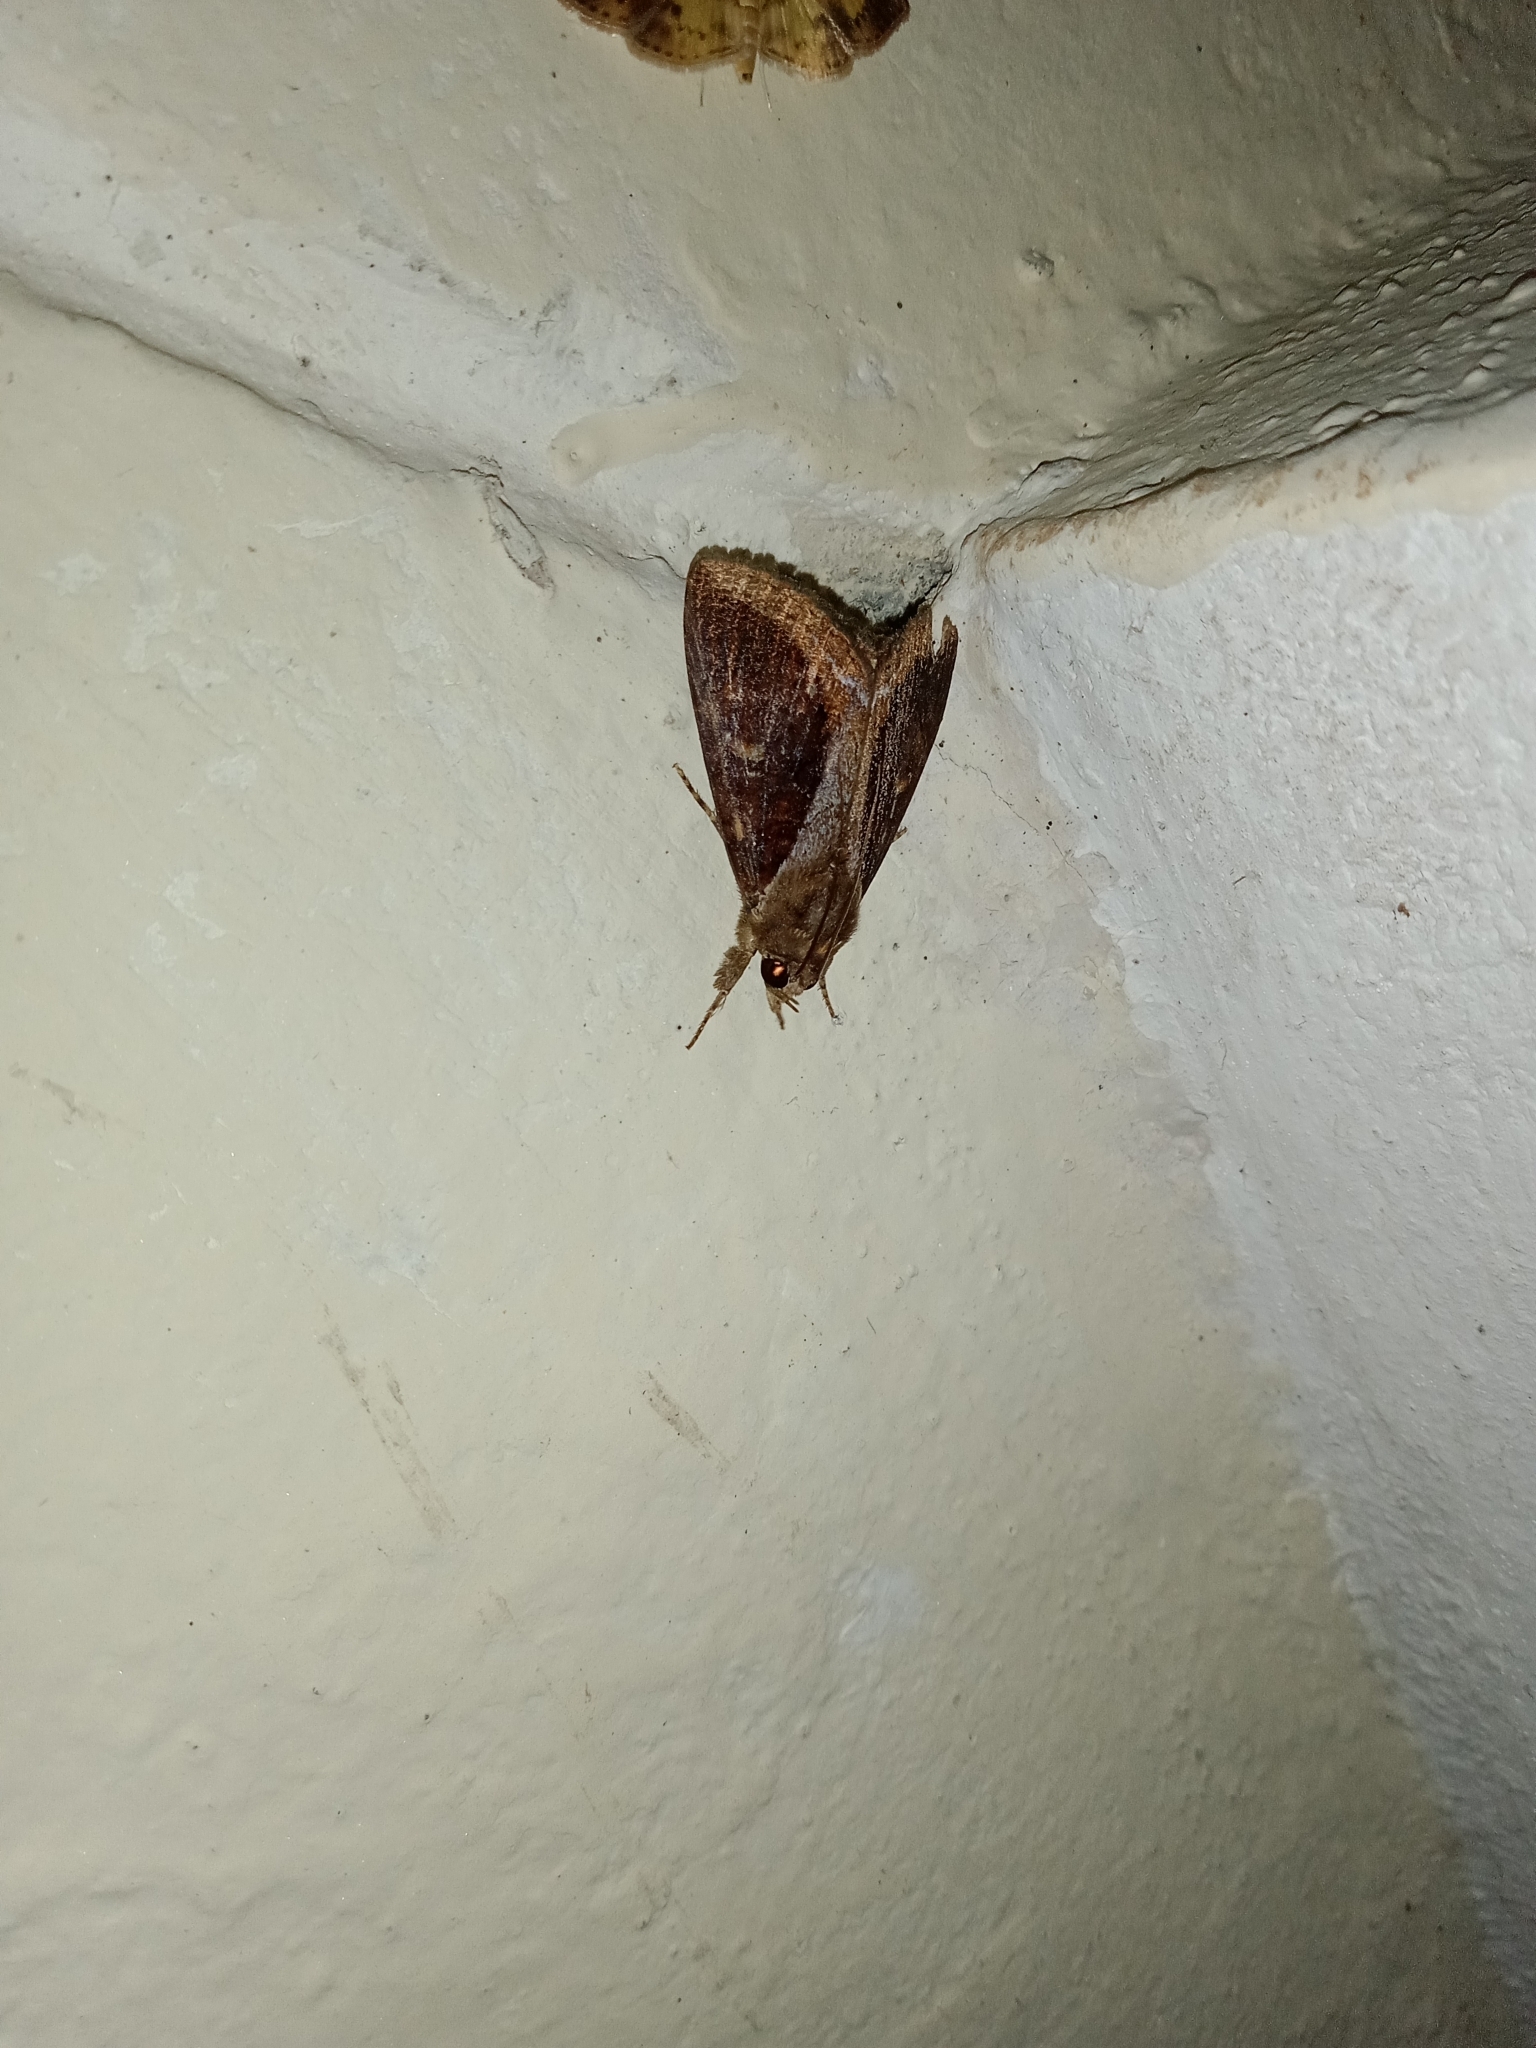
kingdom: Animalia
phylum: Arthropoda
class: Insecta
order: Lepidoptera
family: Erebidae
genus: Ercheia
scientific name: Ercheia cyllaria
